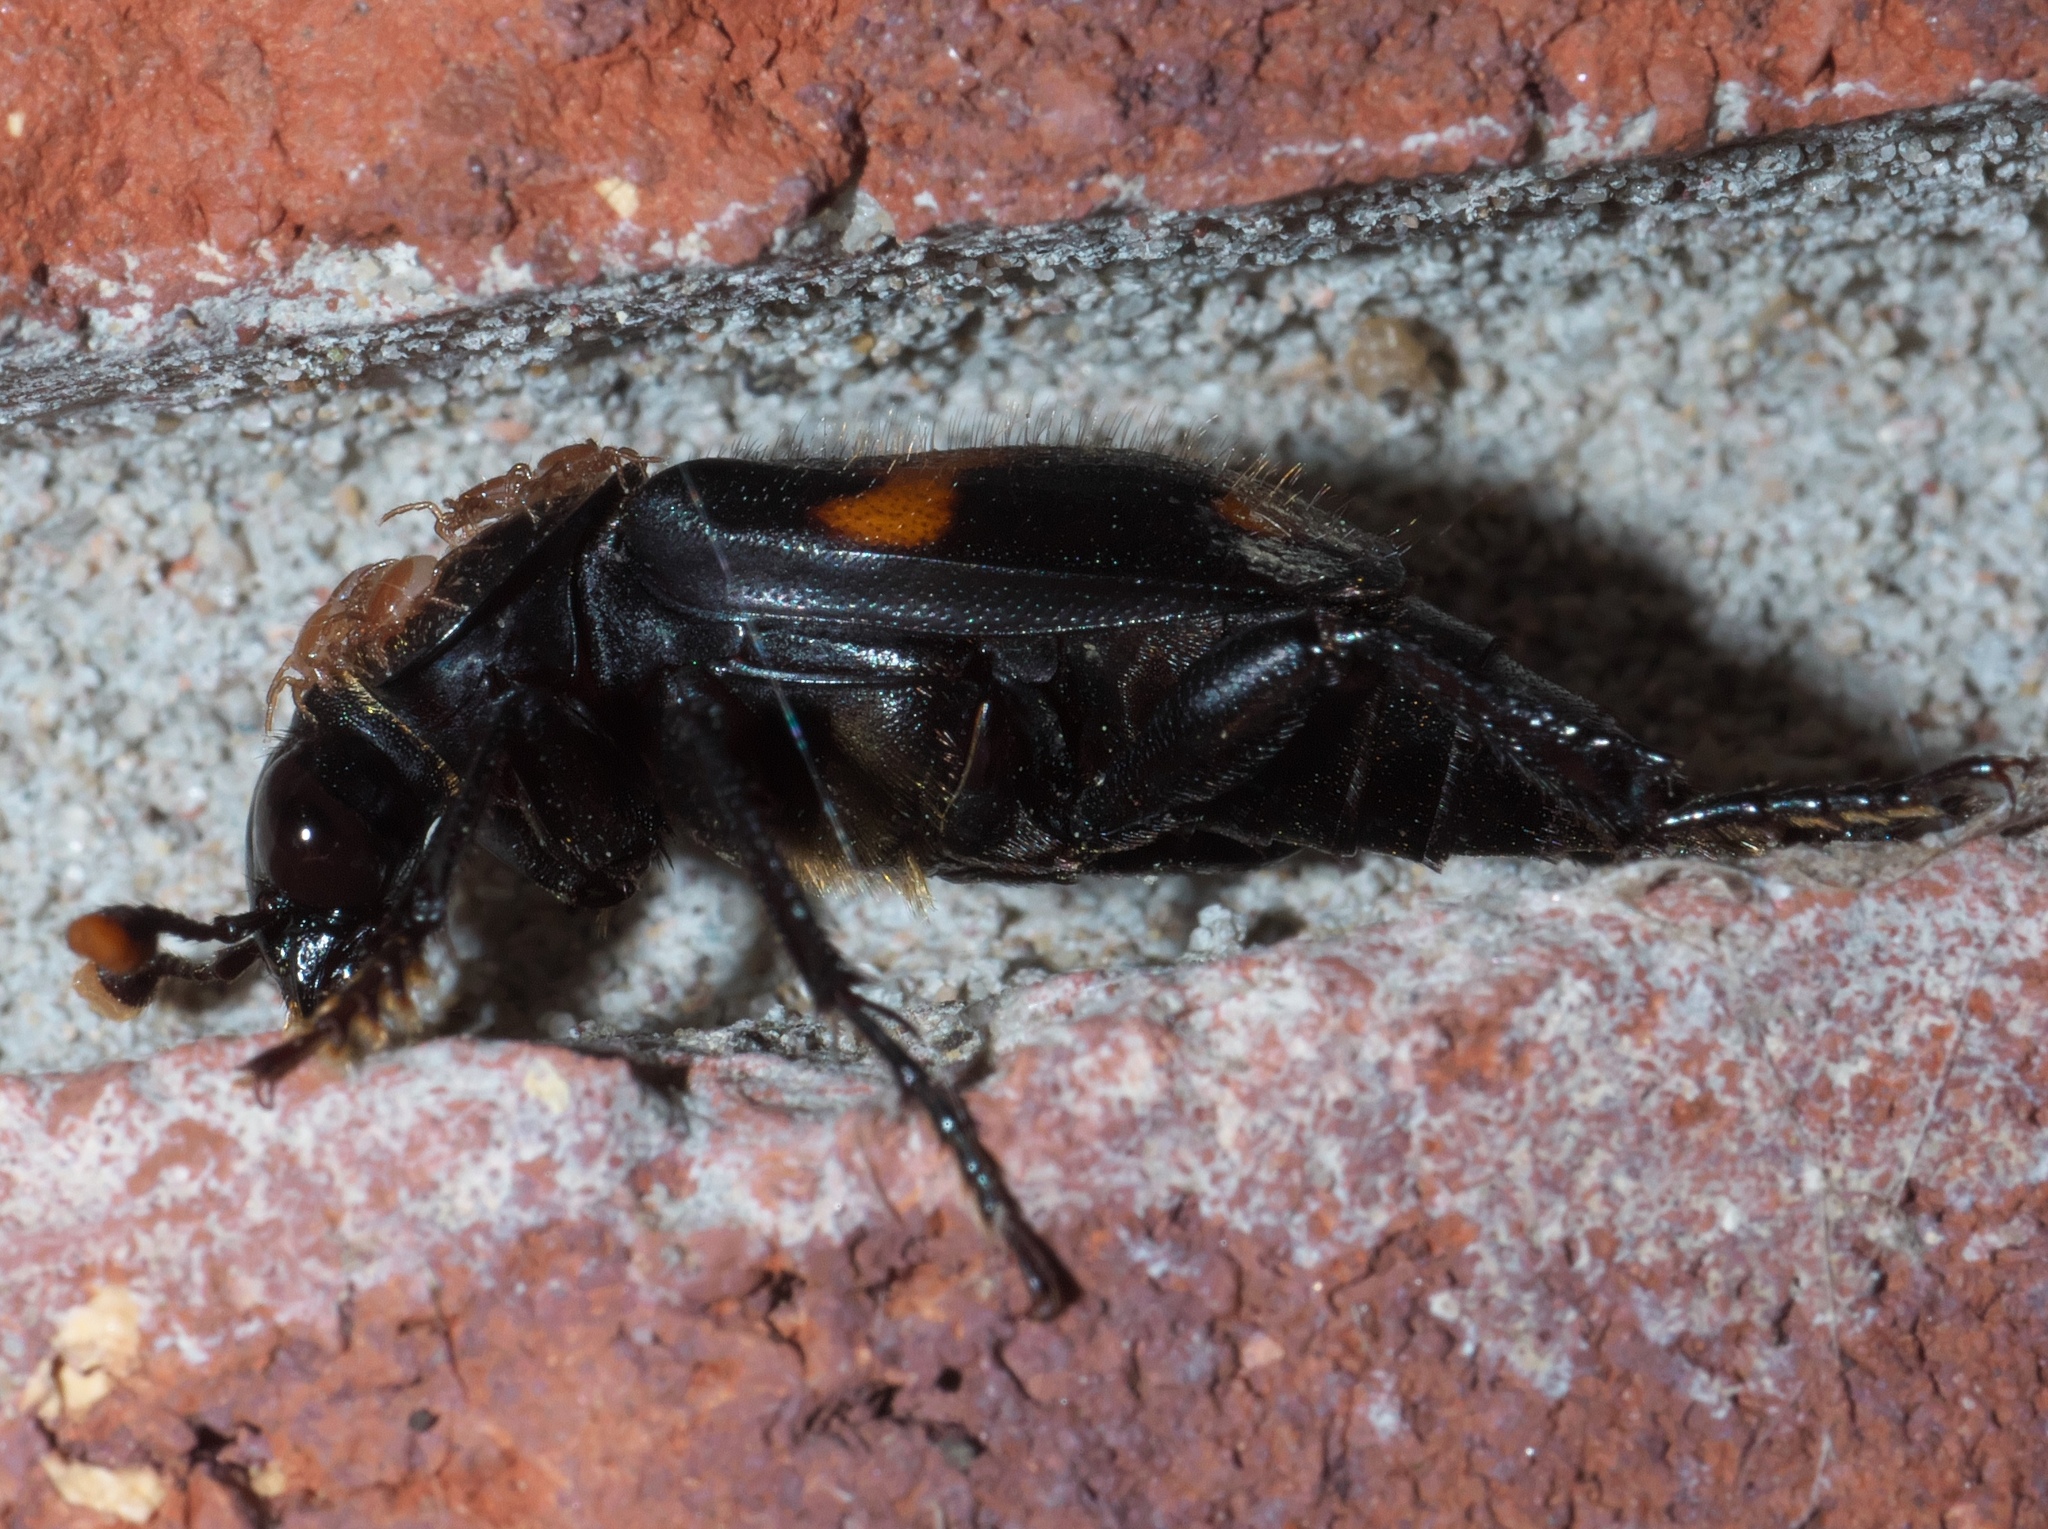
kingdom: Animalia
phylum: Arthropoda
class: Insecta
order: Coleoptera
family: Staphylinidae
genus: Nicrophorus
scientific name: Nicrophorus orbicollis
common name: Roundneck sexton beetle
